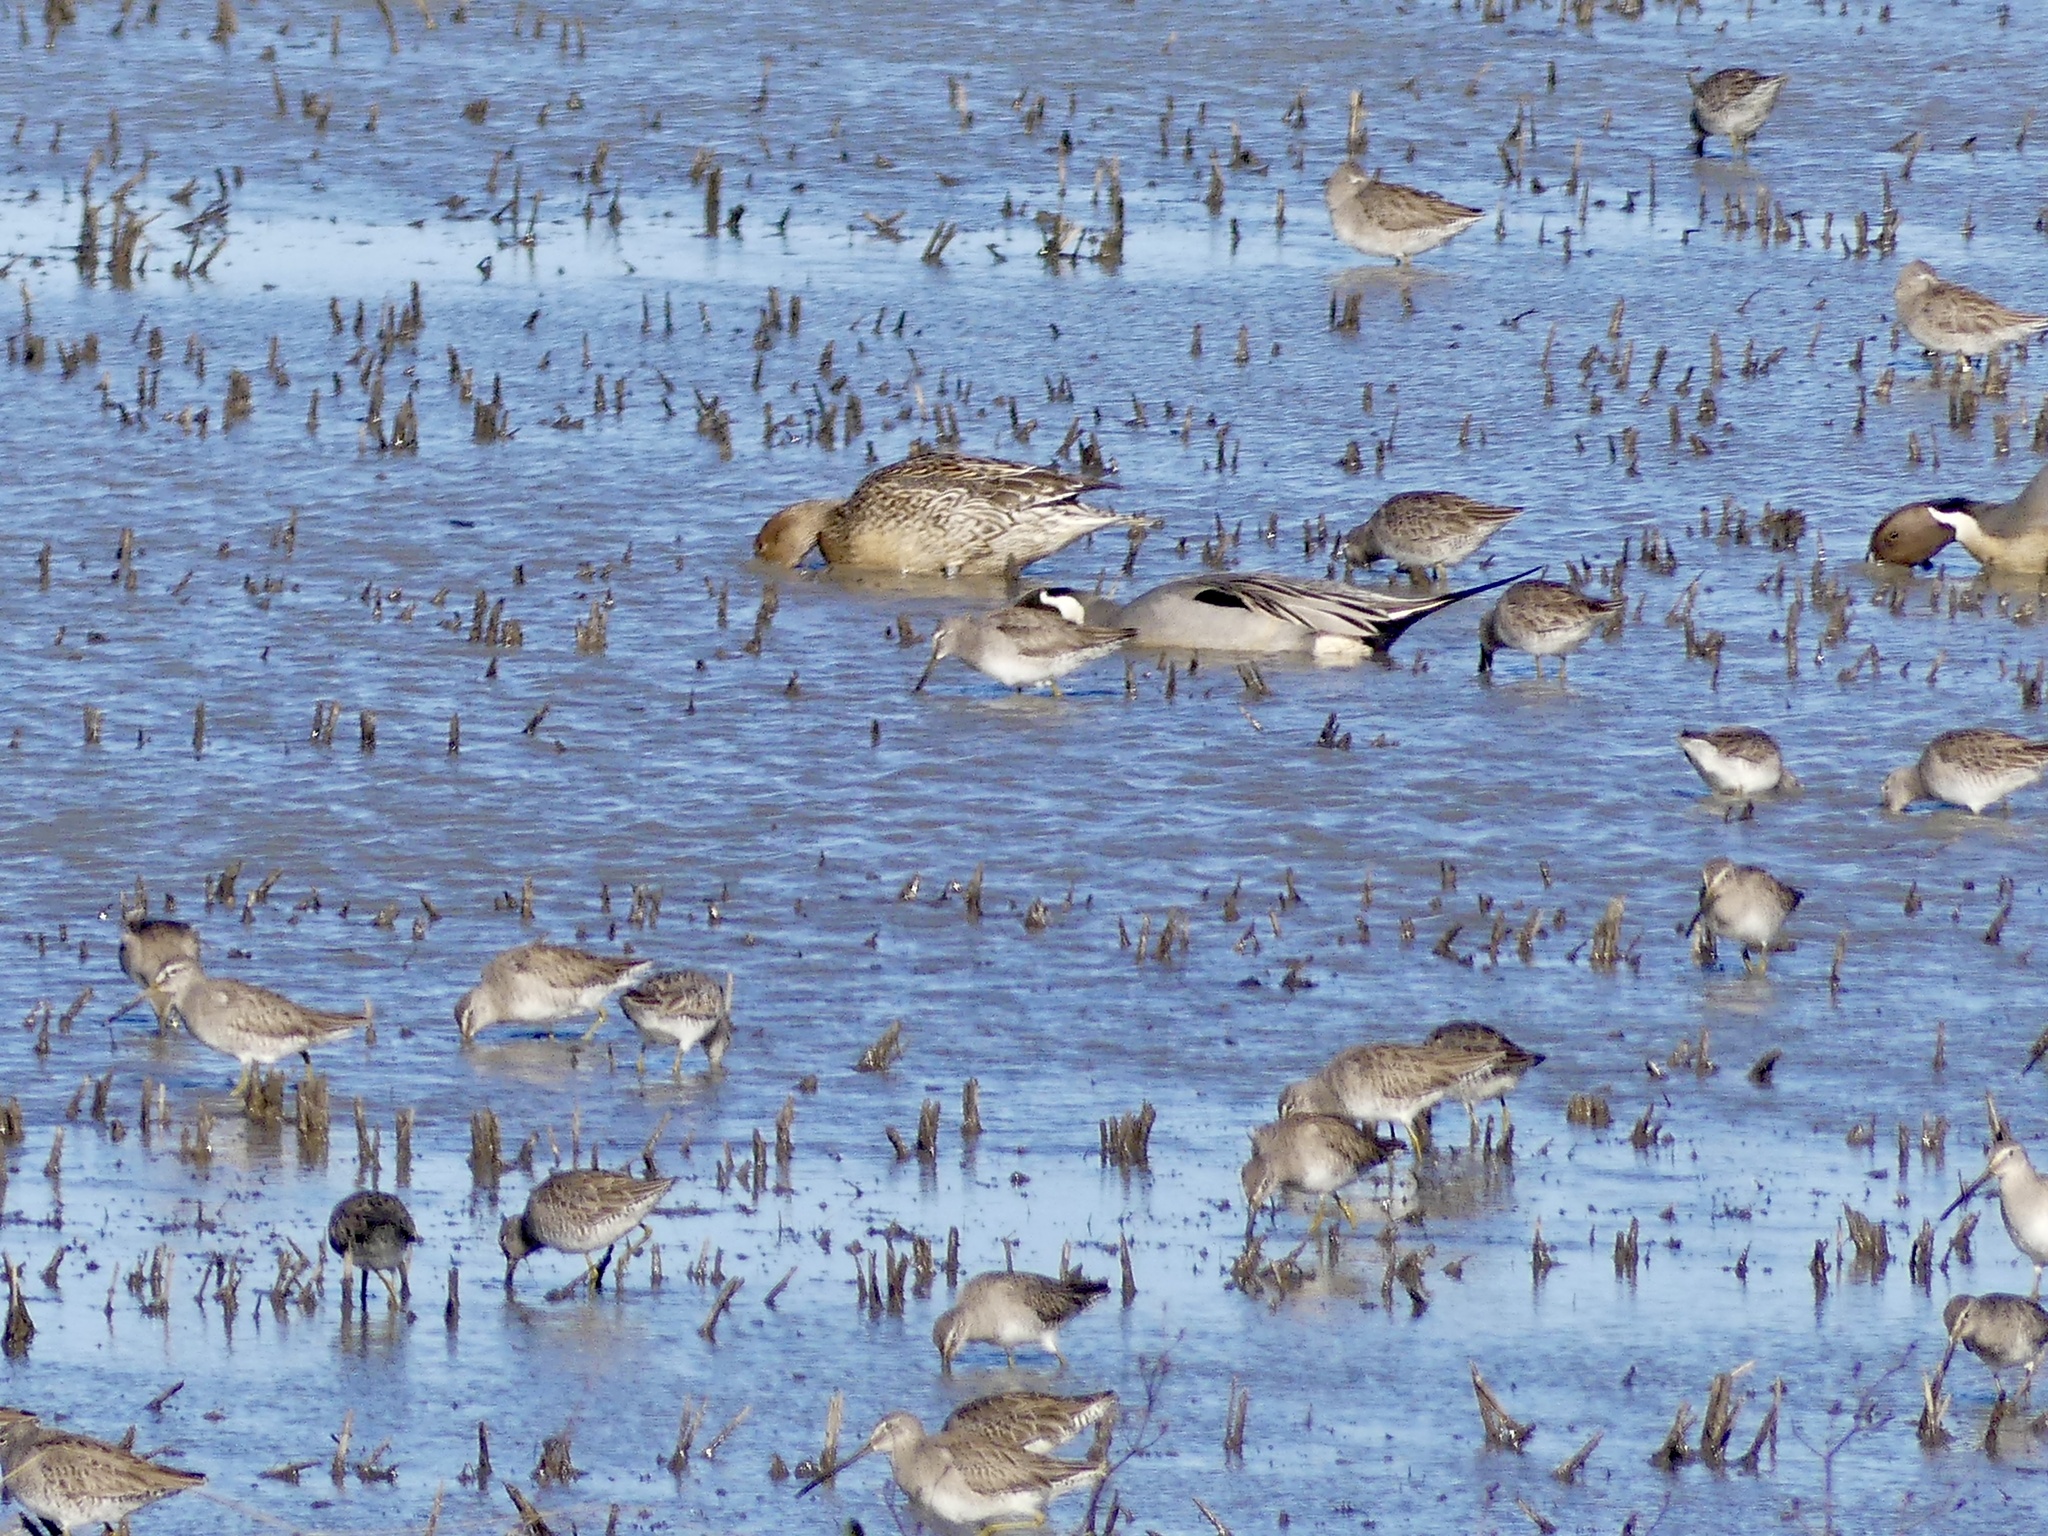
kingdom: Animalia
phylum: Chordata
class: Aves
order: Charadriiformes
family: Scolopacidae
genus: Limnodromus
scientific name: Limnodromus scolopaceus
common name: Long-billed dowitcher
